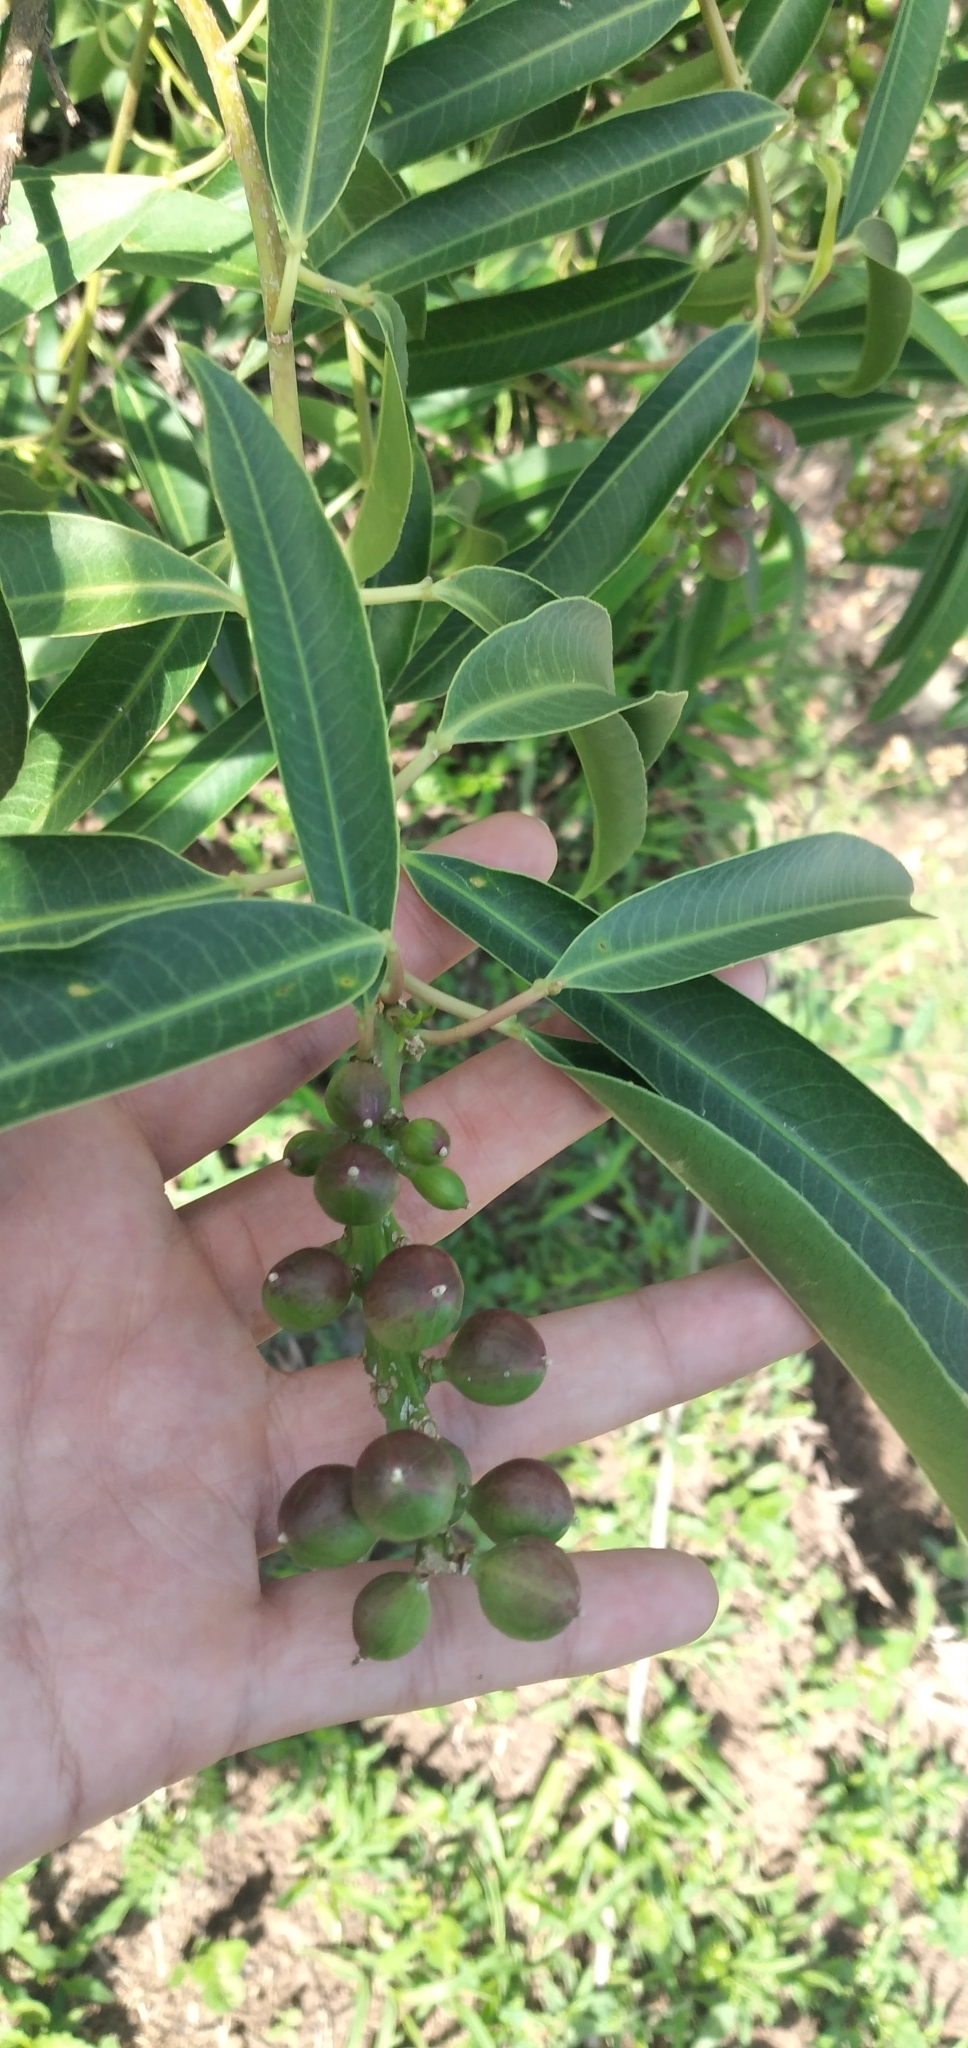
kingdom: Plantae
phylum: Tracheophyta
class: Magnoliopsida
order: Malpighiales
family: Euphorbiaceae
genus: Sapium
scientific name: Sapium haematospermum
